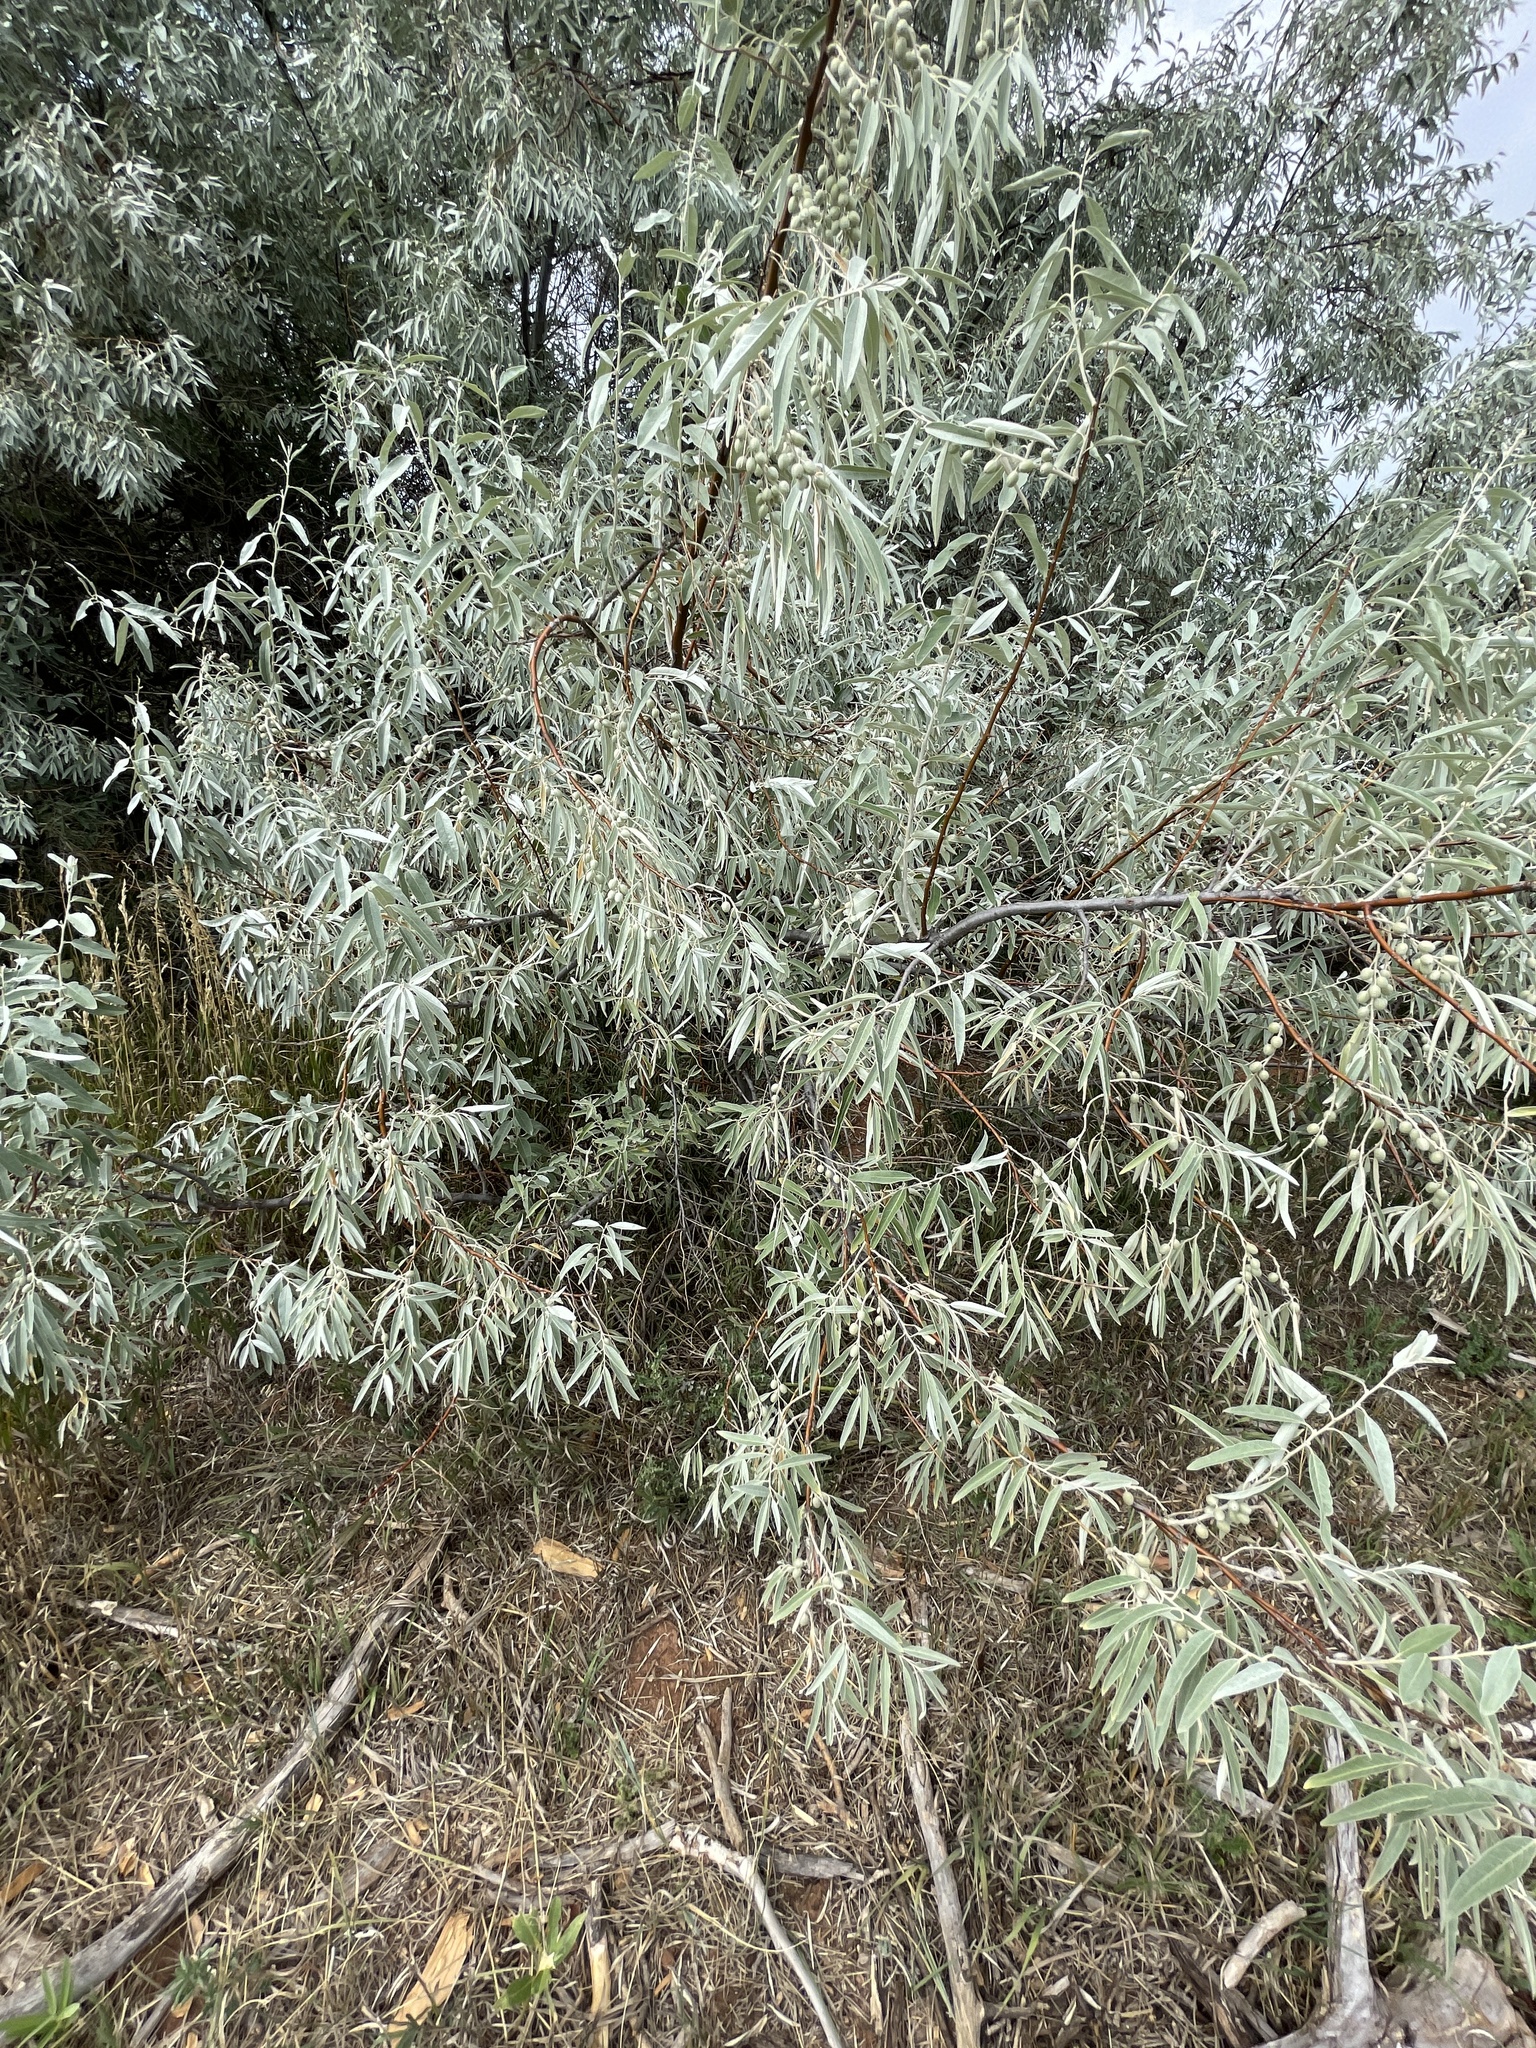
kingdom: Plantae
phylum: Tracheophyta
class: Magnoliopsida
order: Rosales
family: Elaeagnaceae
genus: Elaeagnus
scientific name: Elaeagnus angustifolia
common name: Russian olive
